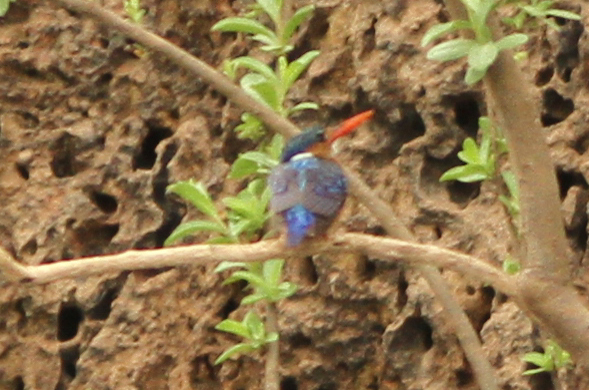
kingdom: Animalia
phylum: Chordata
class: Aves
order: Coraciiformes
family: Alcedinidae
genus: Corythornis
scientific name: Corythornis cristatus
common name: Malachite kingfisher
